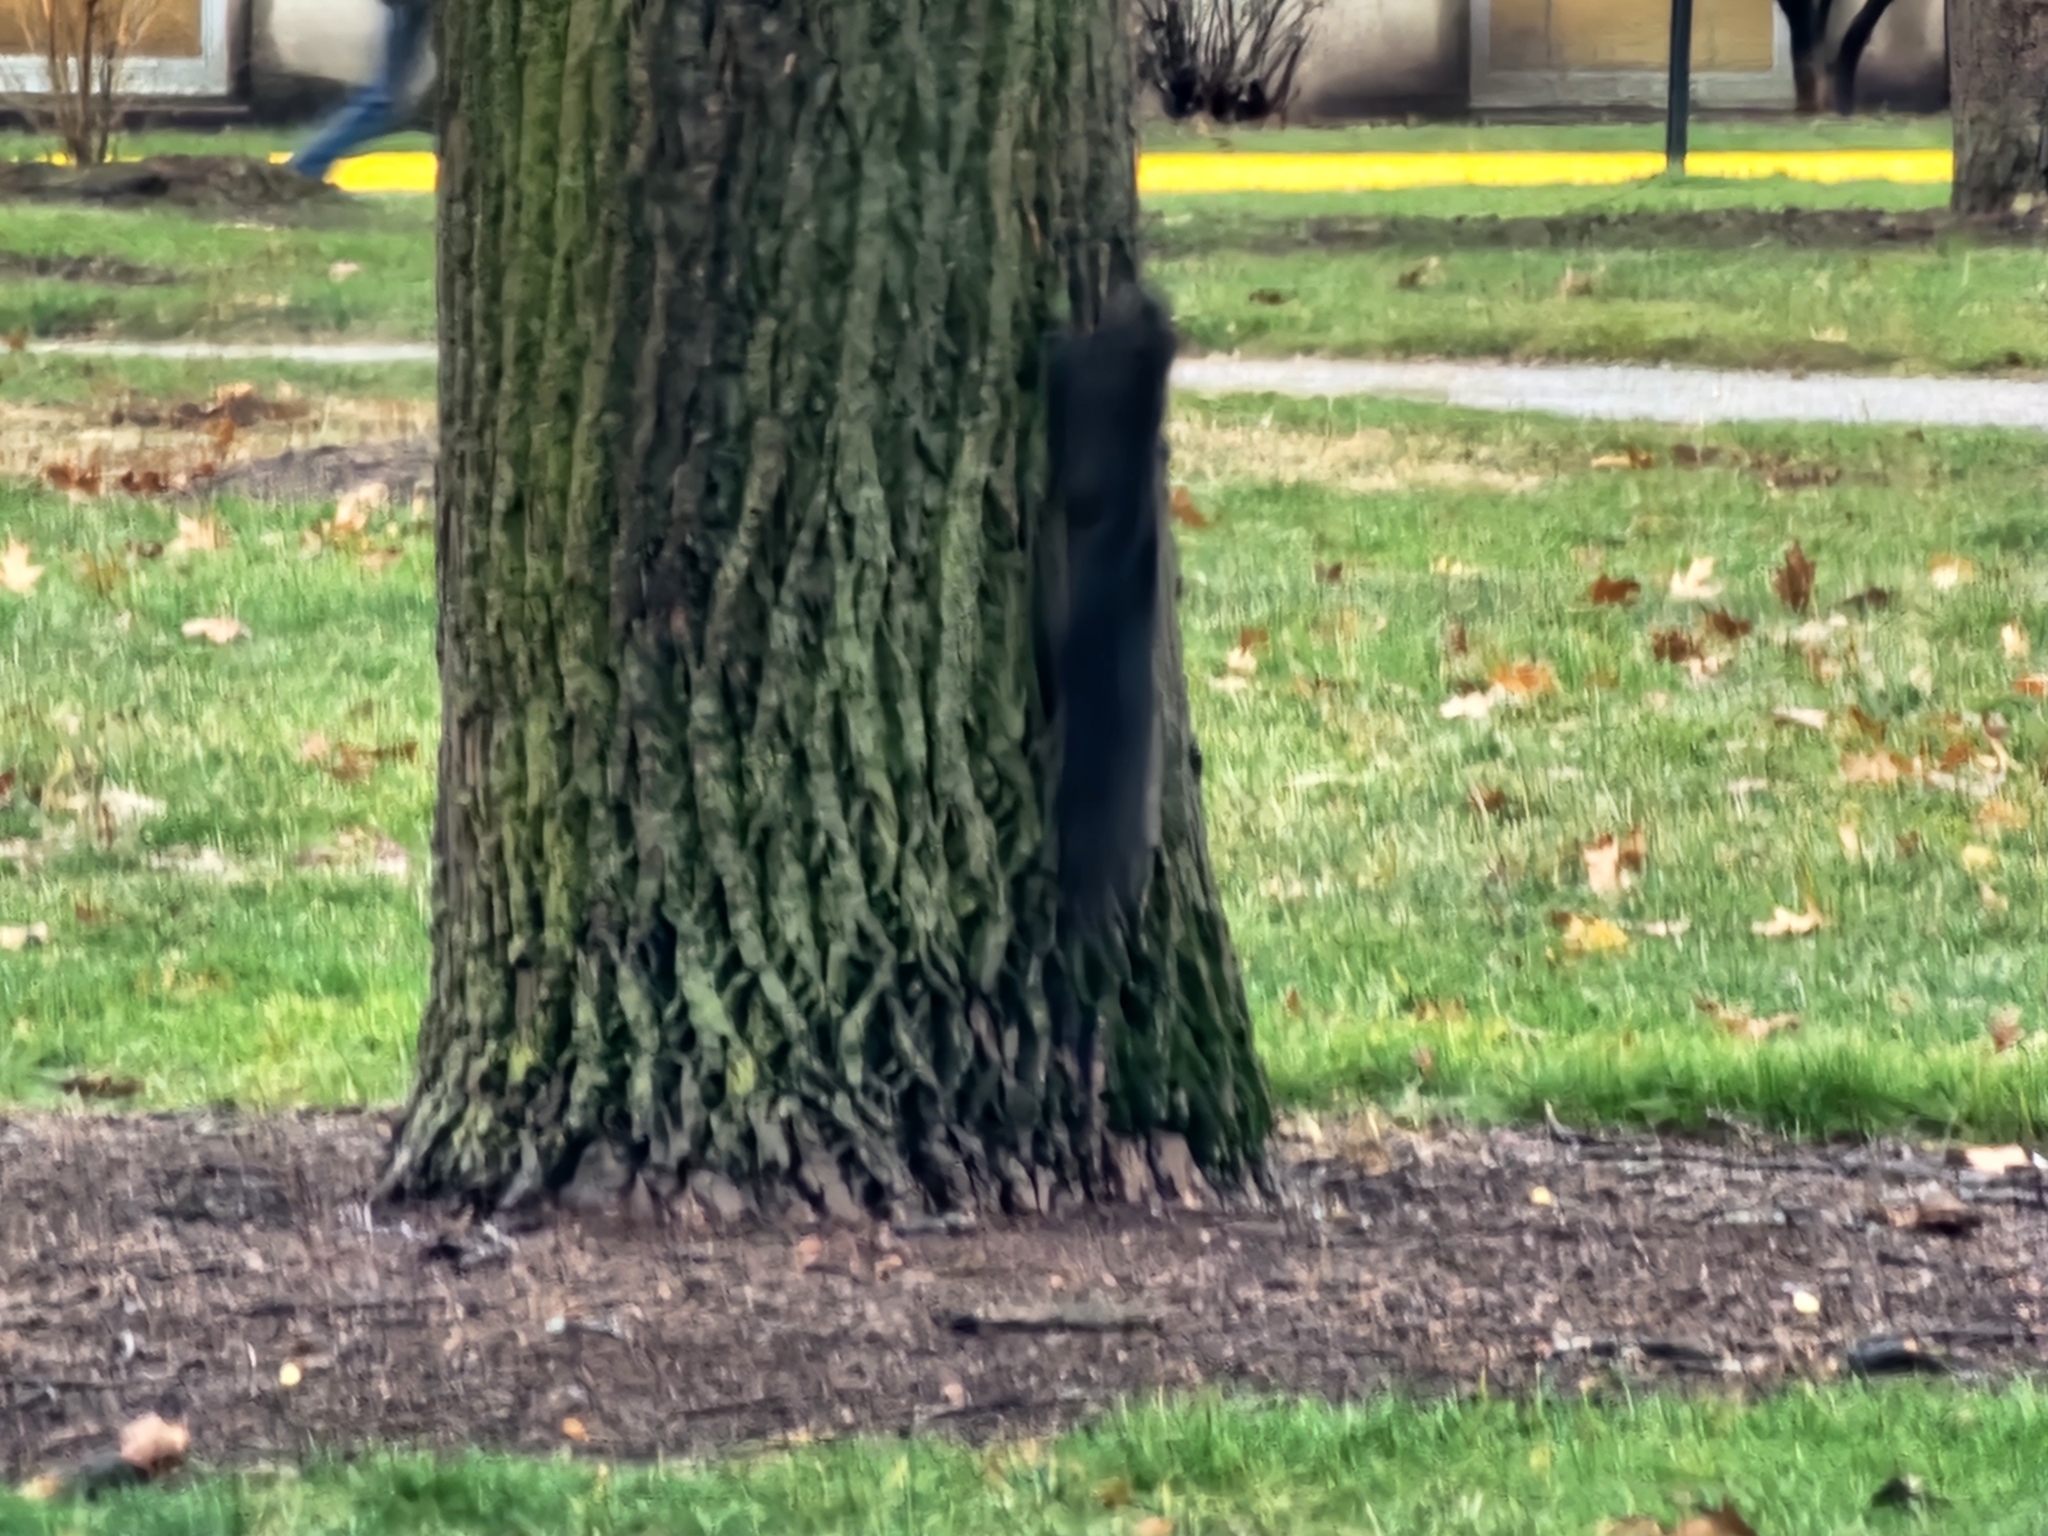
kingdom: Animalia
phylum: Chordata
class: Mammalia
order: Rodentia
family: Sciuridae
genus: Sciurus
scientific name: Sciurus carolinensis
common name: Eastern gray squirrel
